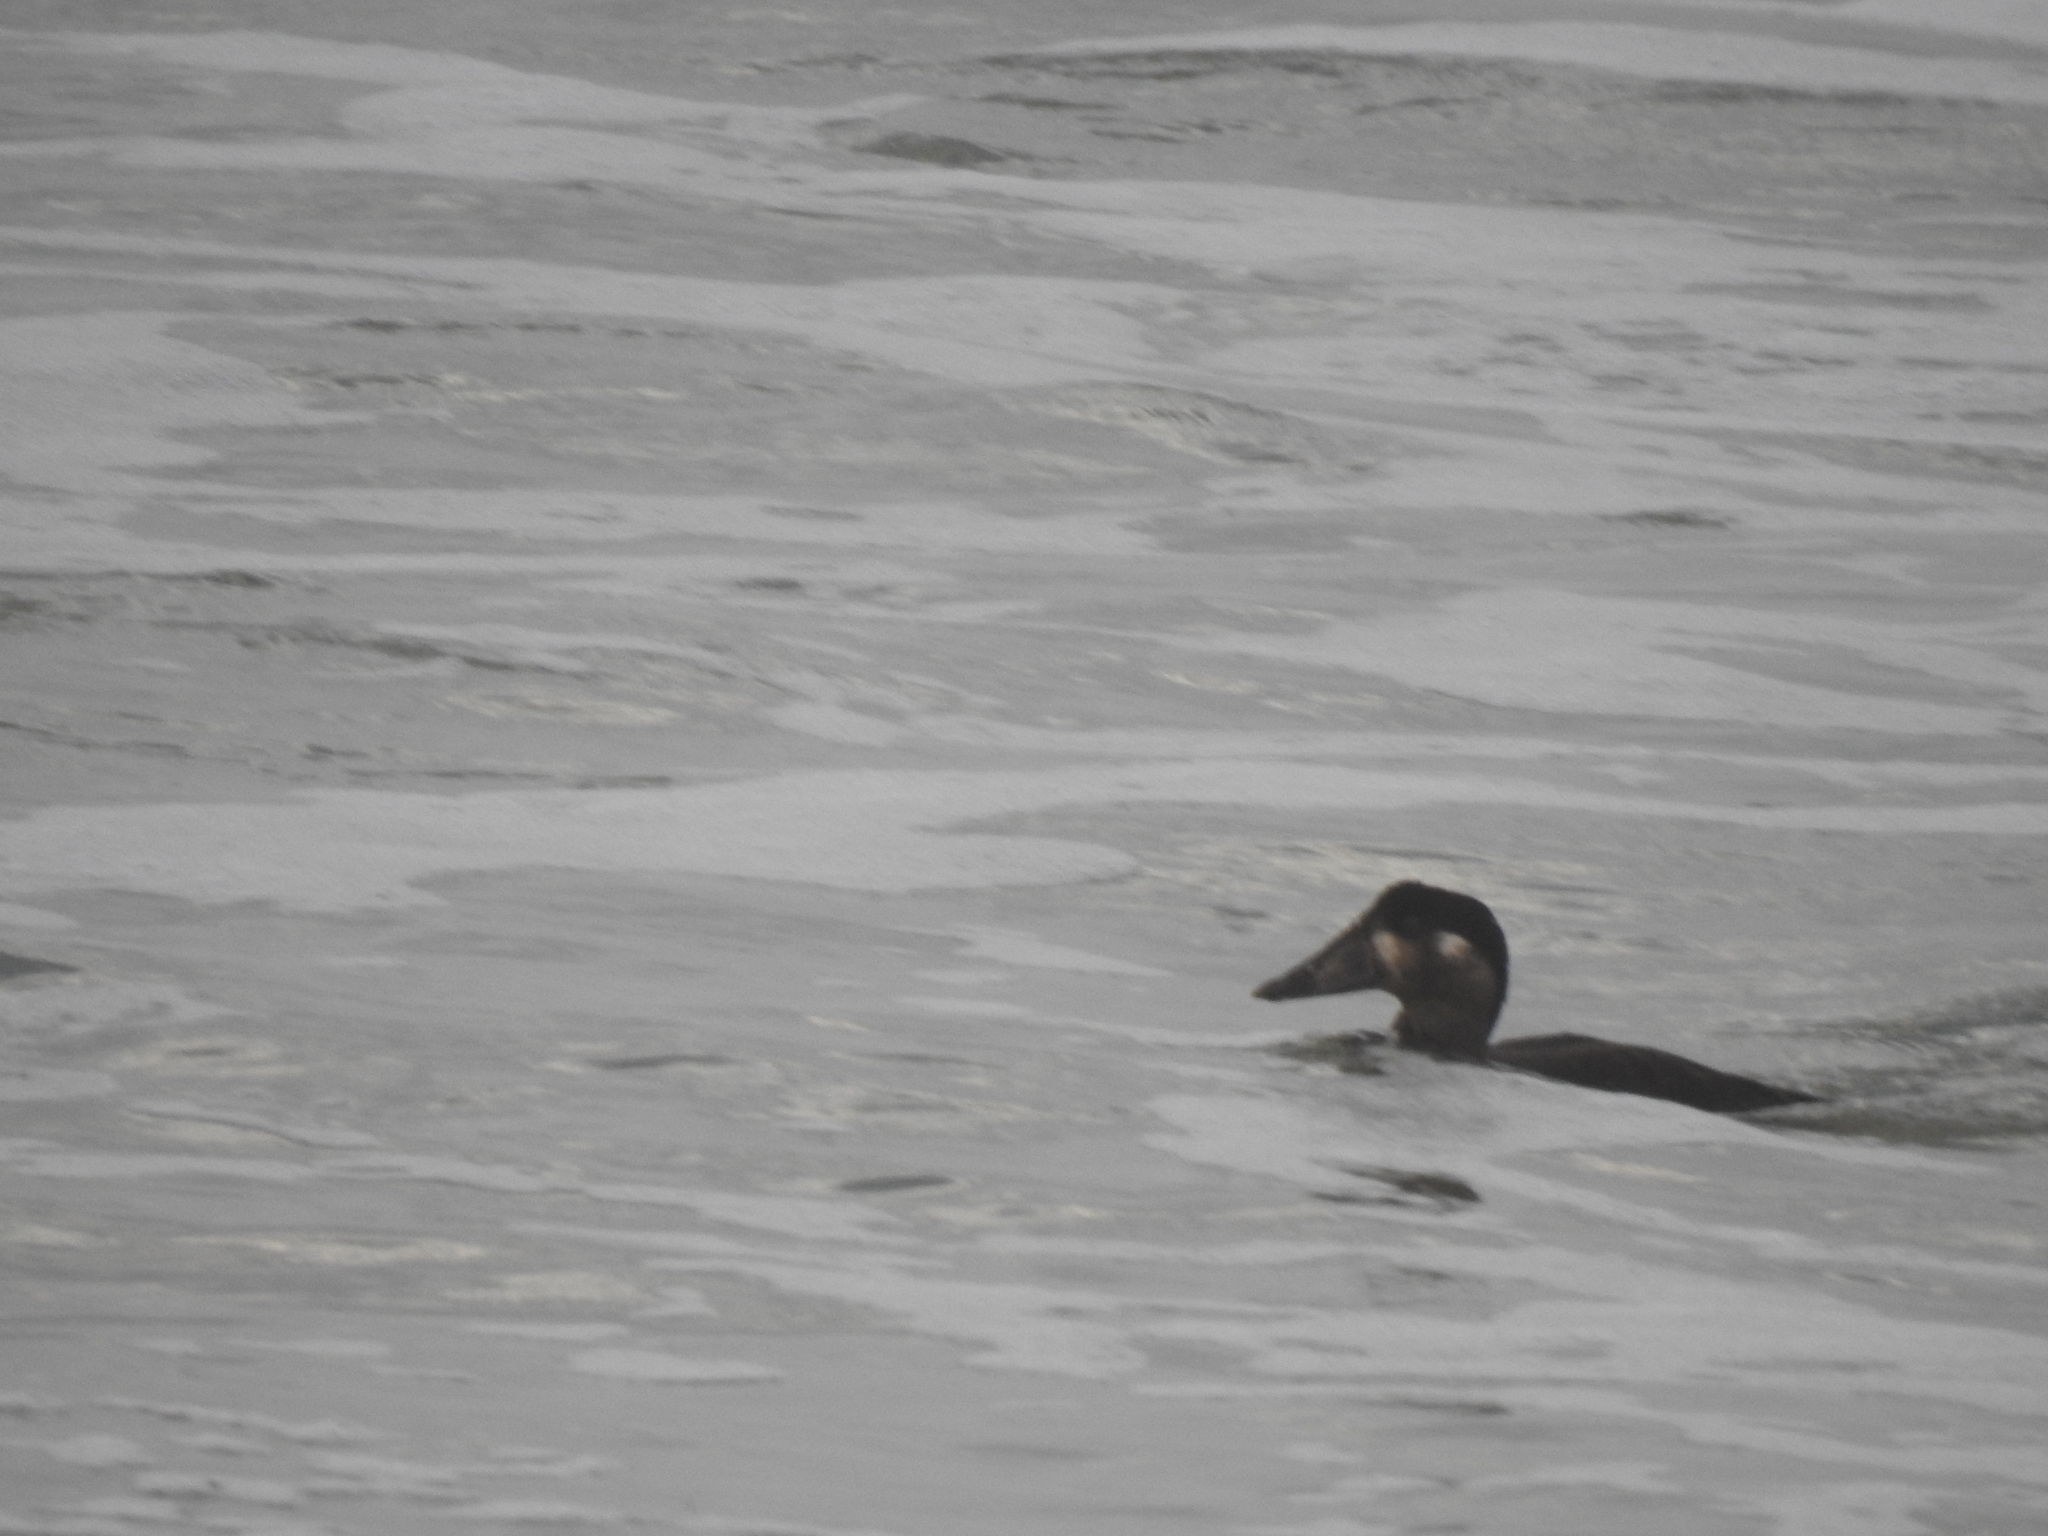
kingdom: Animalia
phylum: Chordata
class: Aves
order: Anseriformes
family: Anatidae
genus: Melanitta
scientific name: Melanitta perspicillata
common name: Surf scoter
